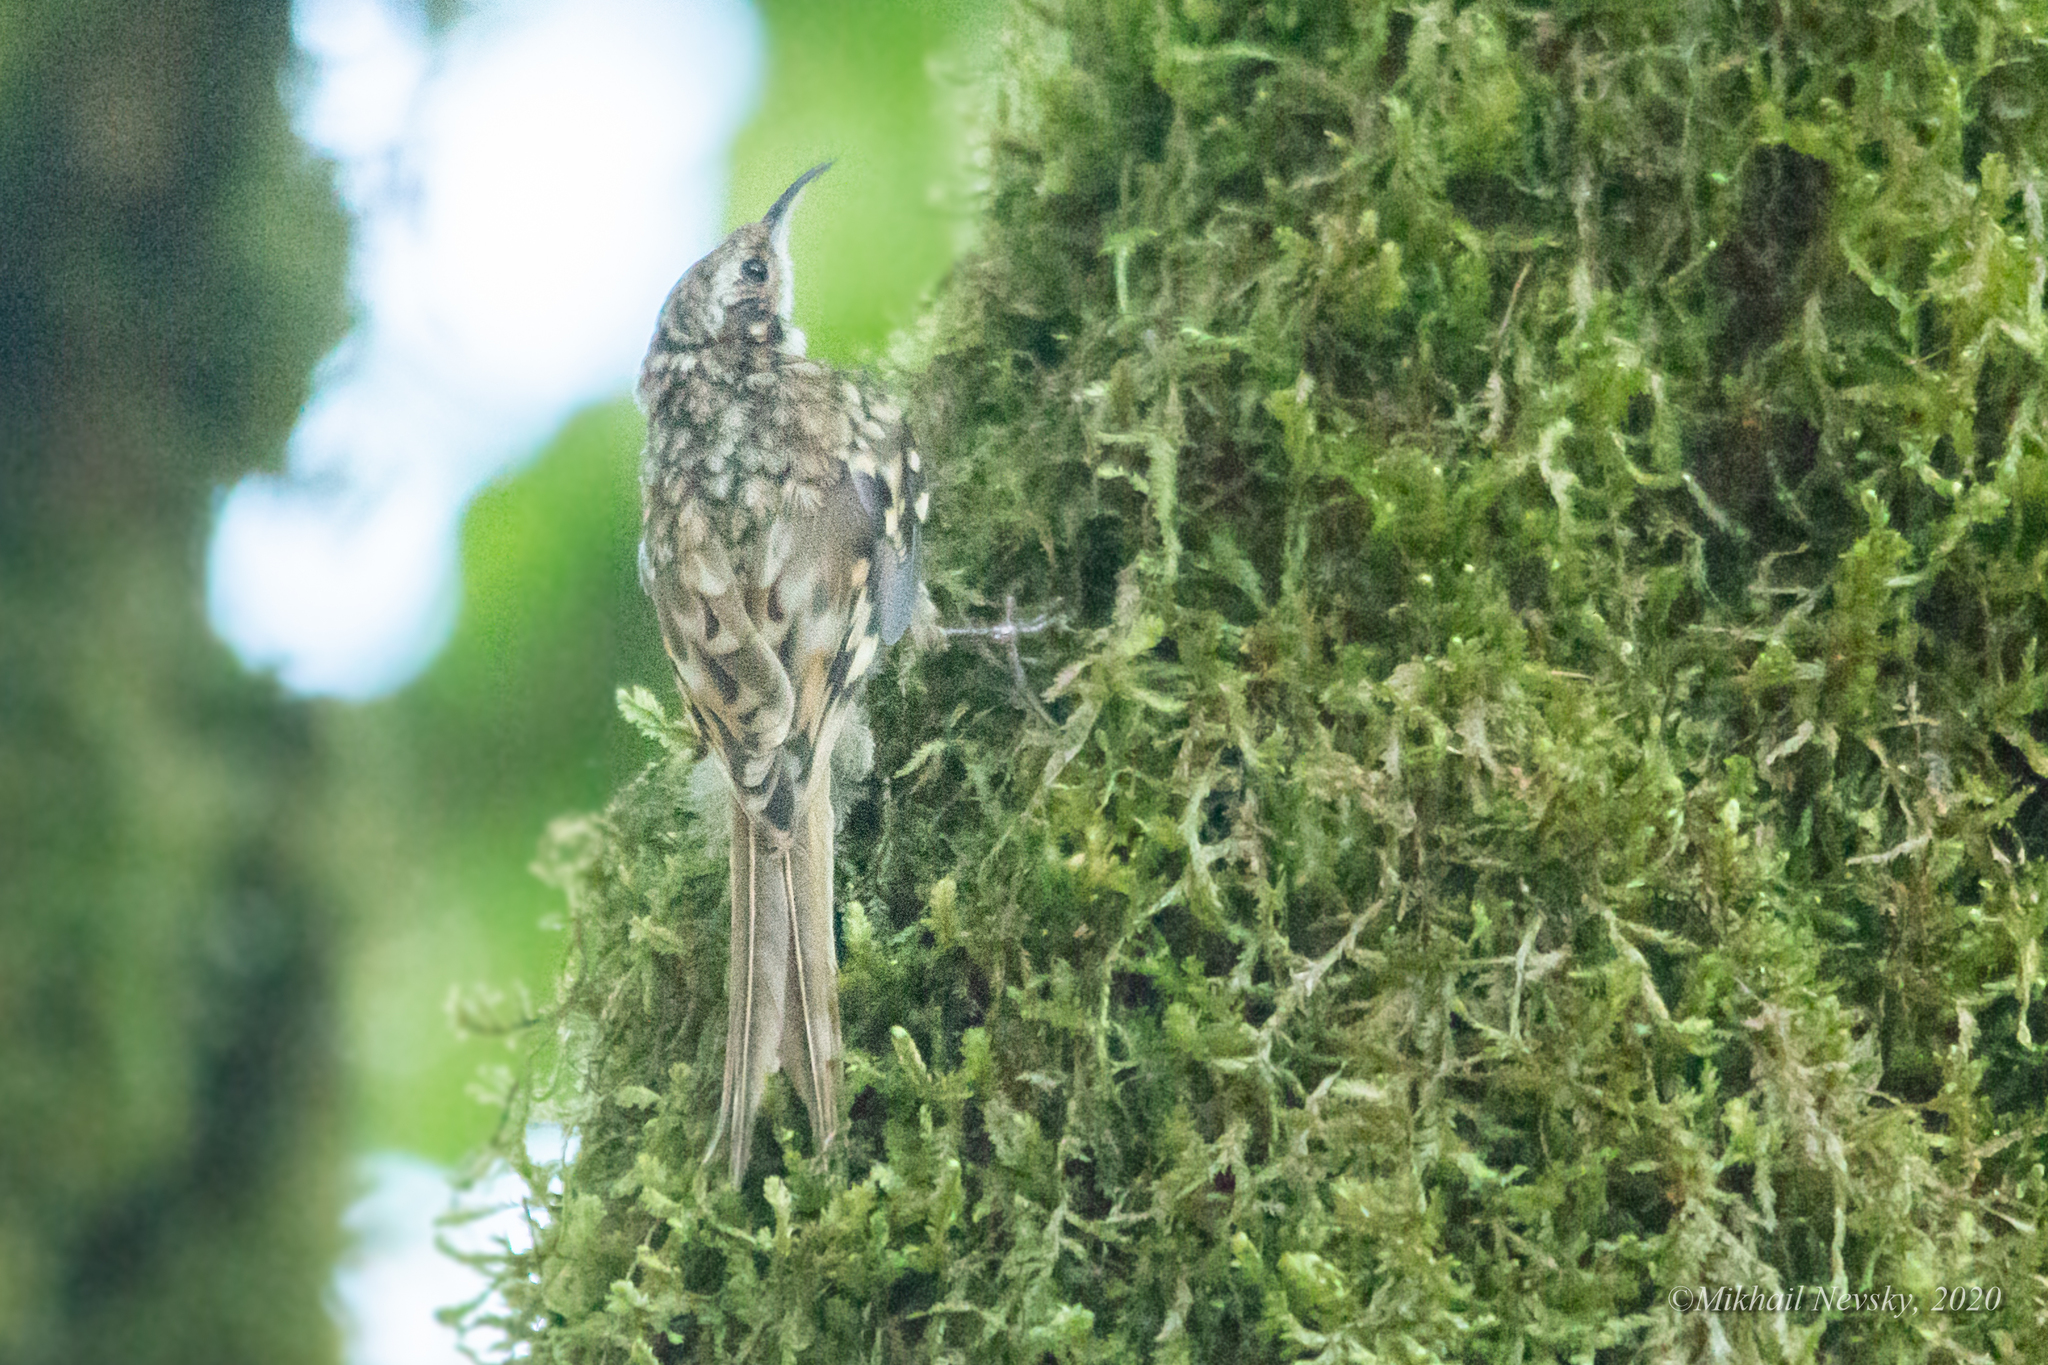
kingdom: Animalia
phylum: Chordata
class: Aves
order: Passeriformes
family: Certhiidae
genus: Certhia
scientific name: Certhia brachydactyla
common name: Short-toed treecreeper
